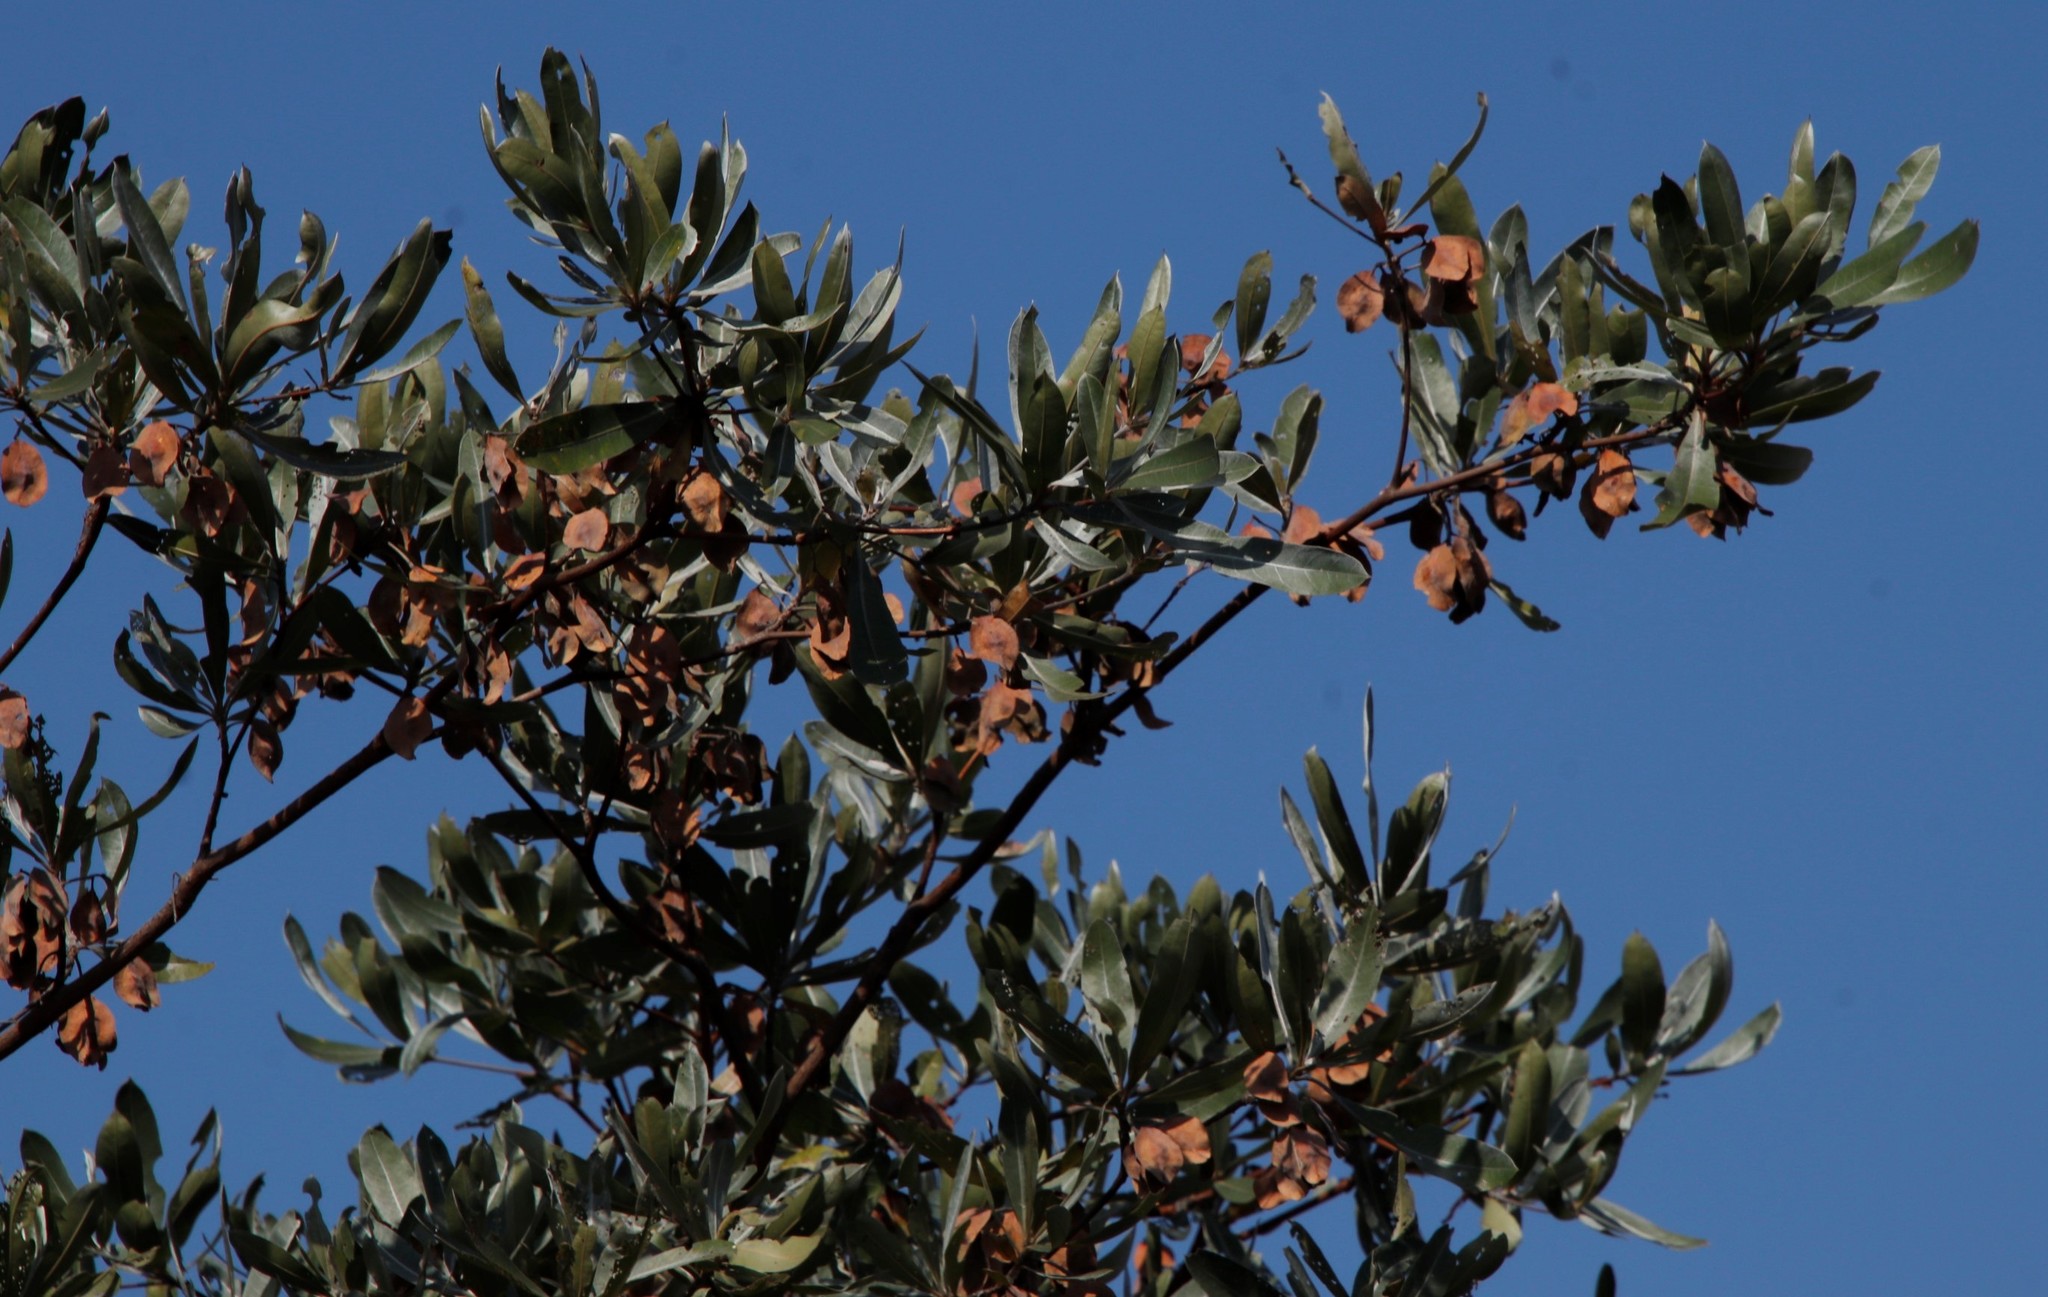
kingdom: Plantae
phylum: Tracheophyta
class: Magnoliopsida
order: Myrtales
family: Combretaceae
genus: Terminalia
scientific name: Terminalia sericea
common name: Clusterleaf
